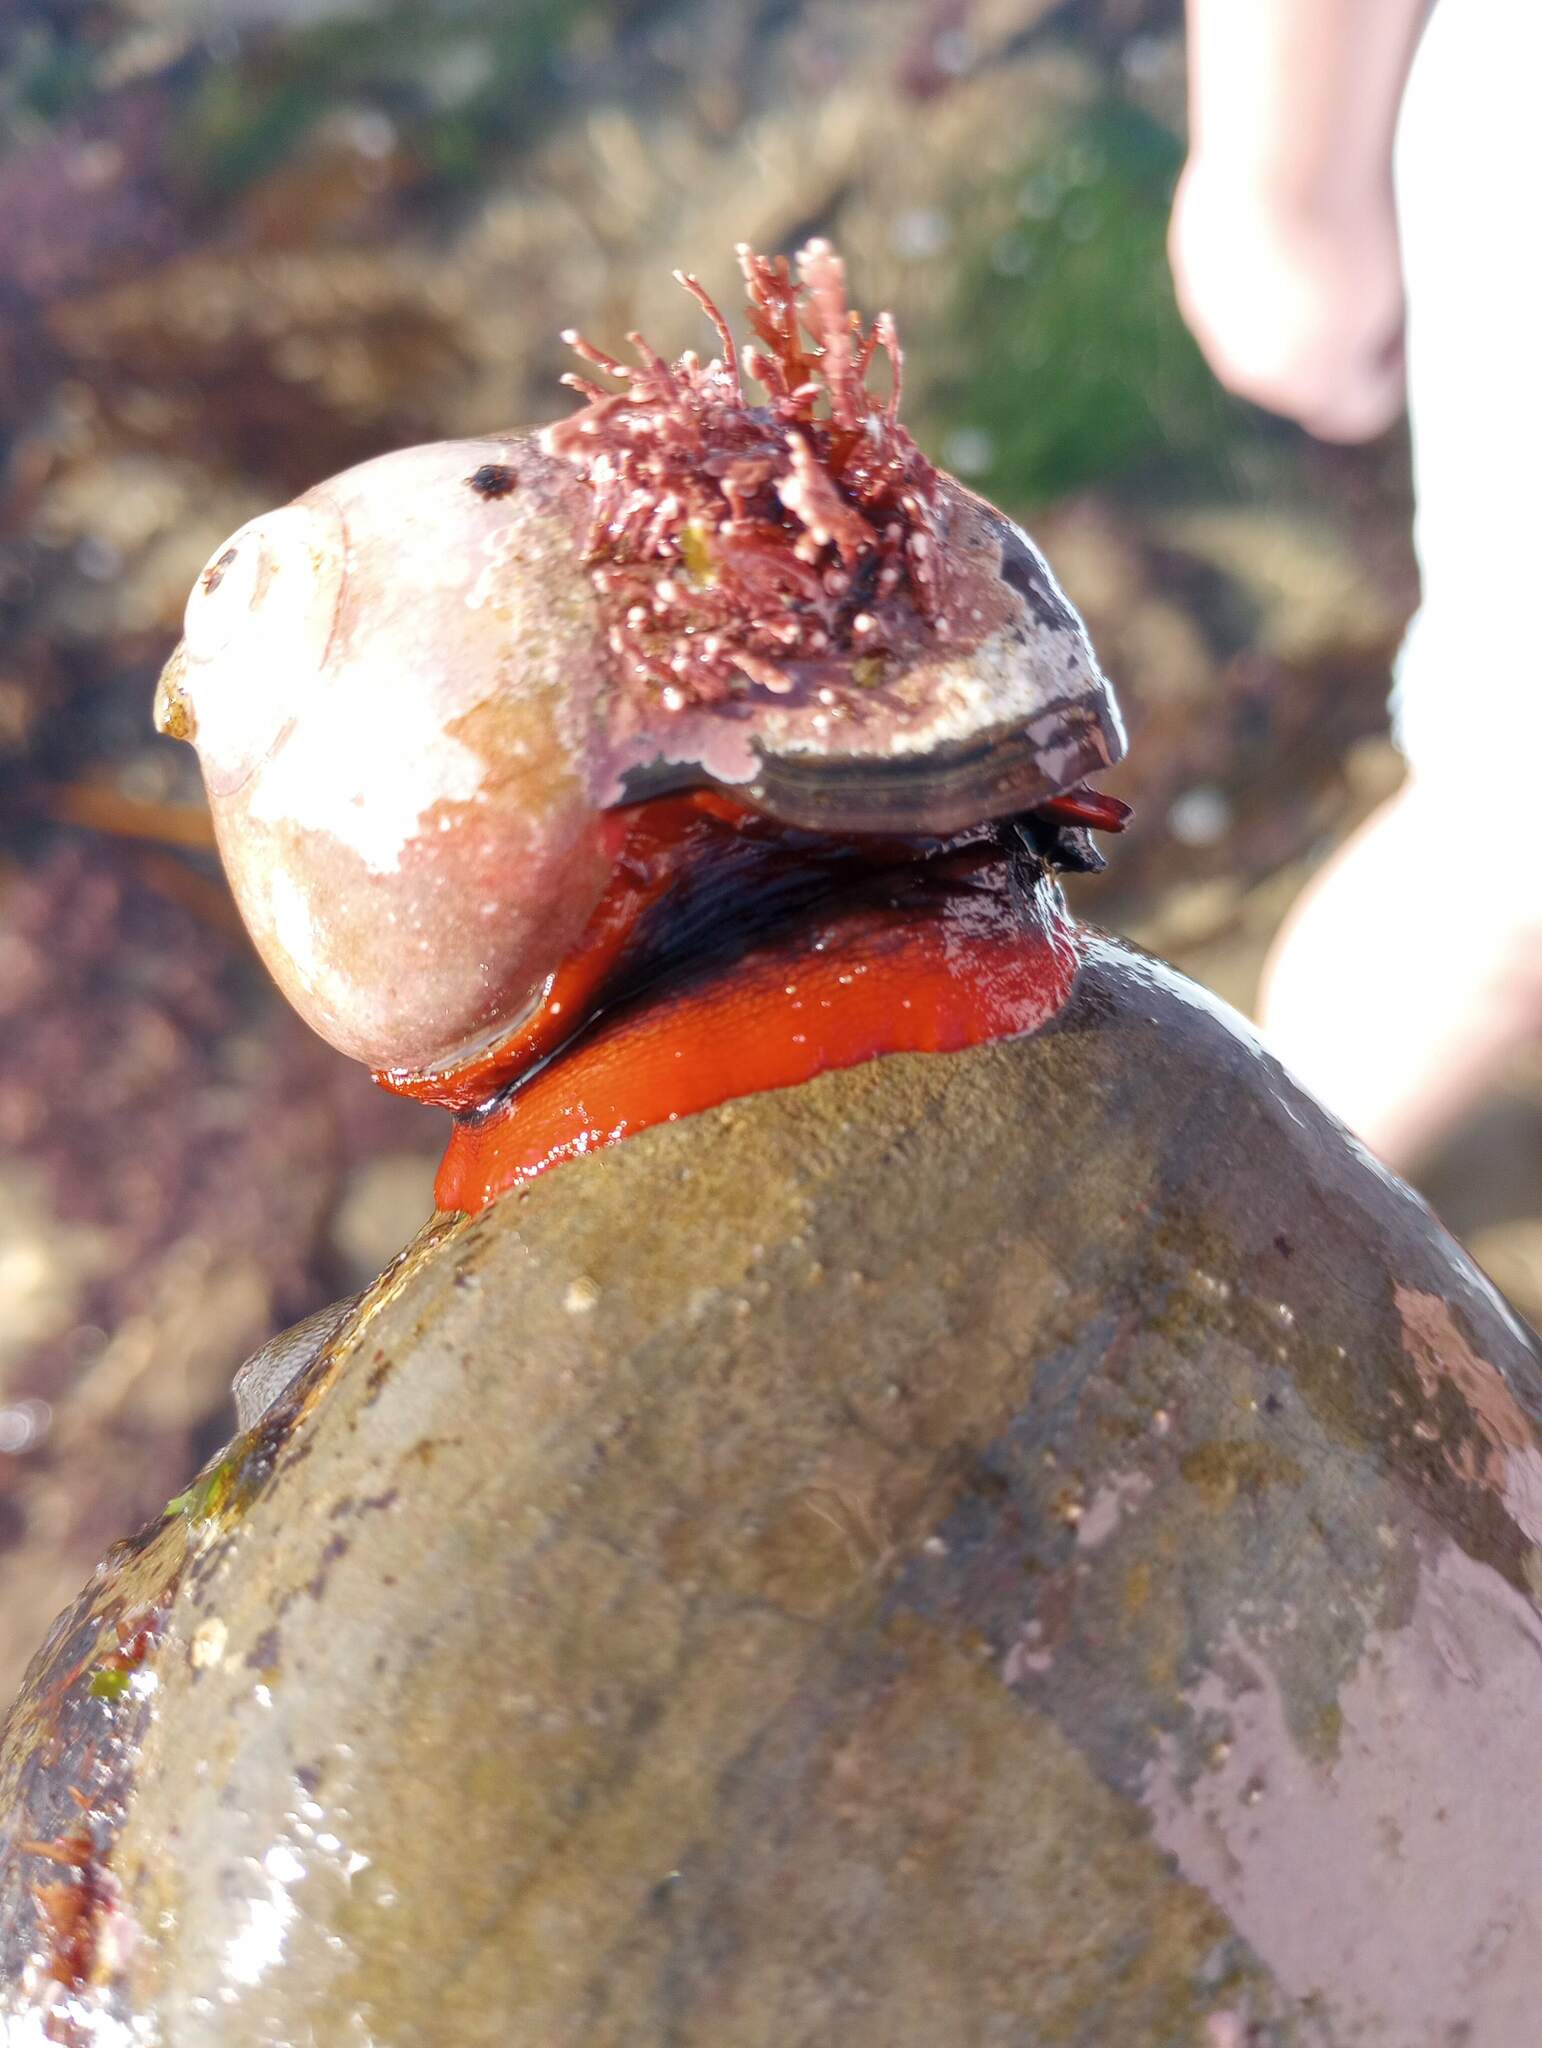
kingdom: Animalia
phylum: Mollusca
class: Gastropoda
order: Trochida
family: Tegulidae
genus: Norrisia
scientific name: Norrisia norrisii
